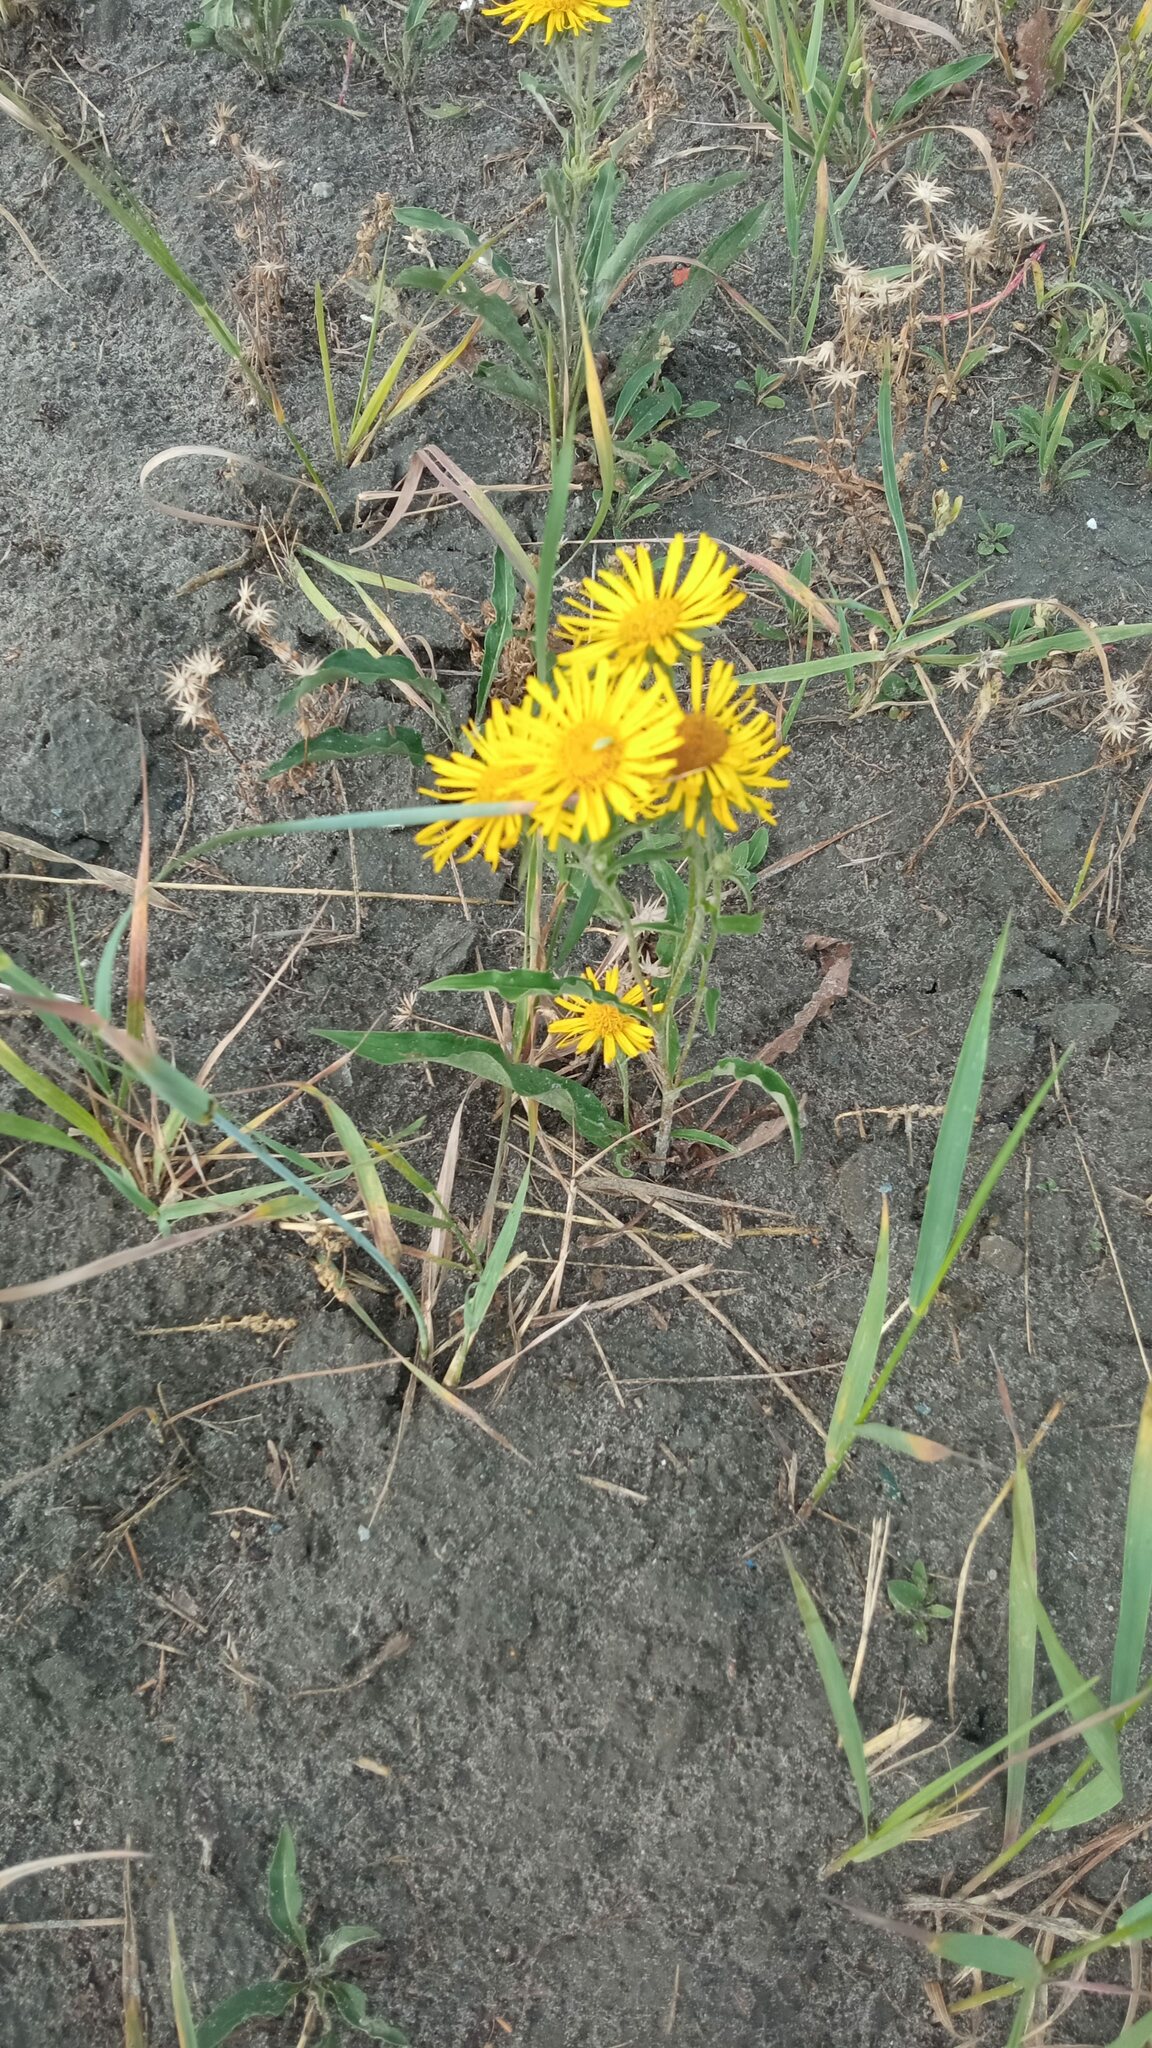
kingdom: Plantae
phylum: Tracheophyta
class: Magnoliopsida
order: Asterales
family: Asteraceae
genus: Pentanema
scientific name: Pentanema britannicum
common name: British elecampane
